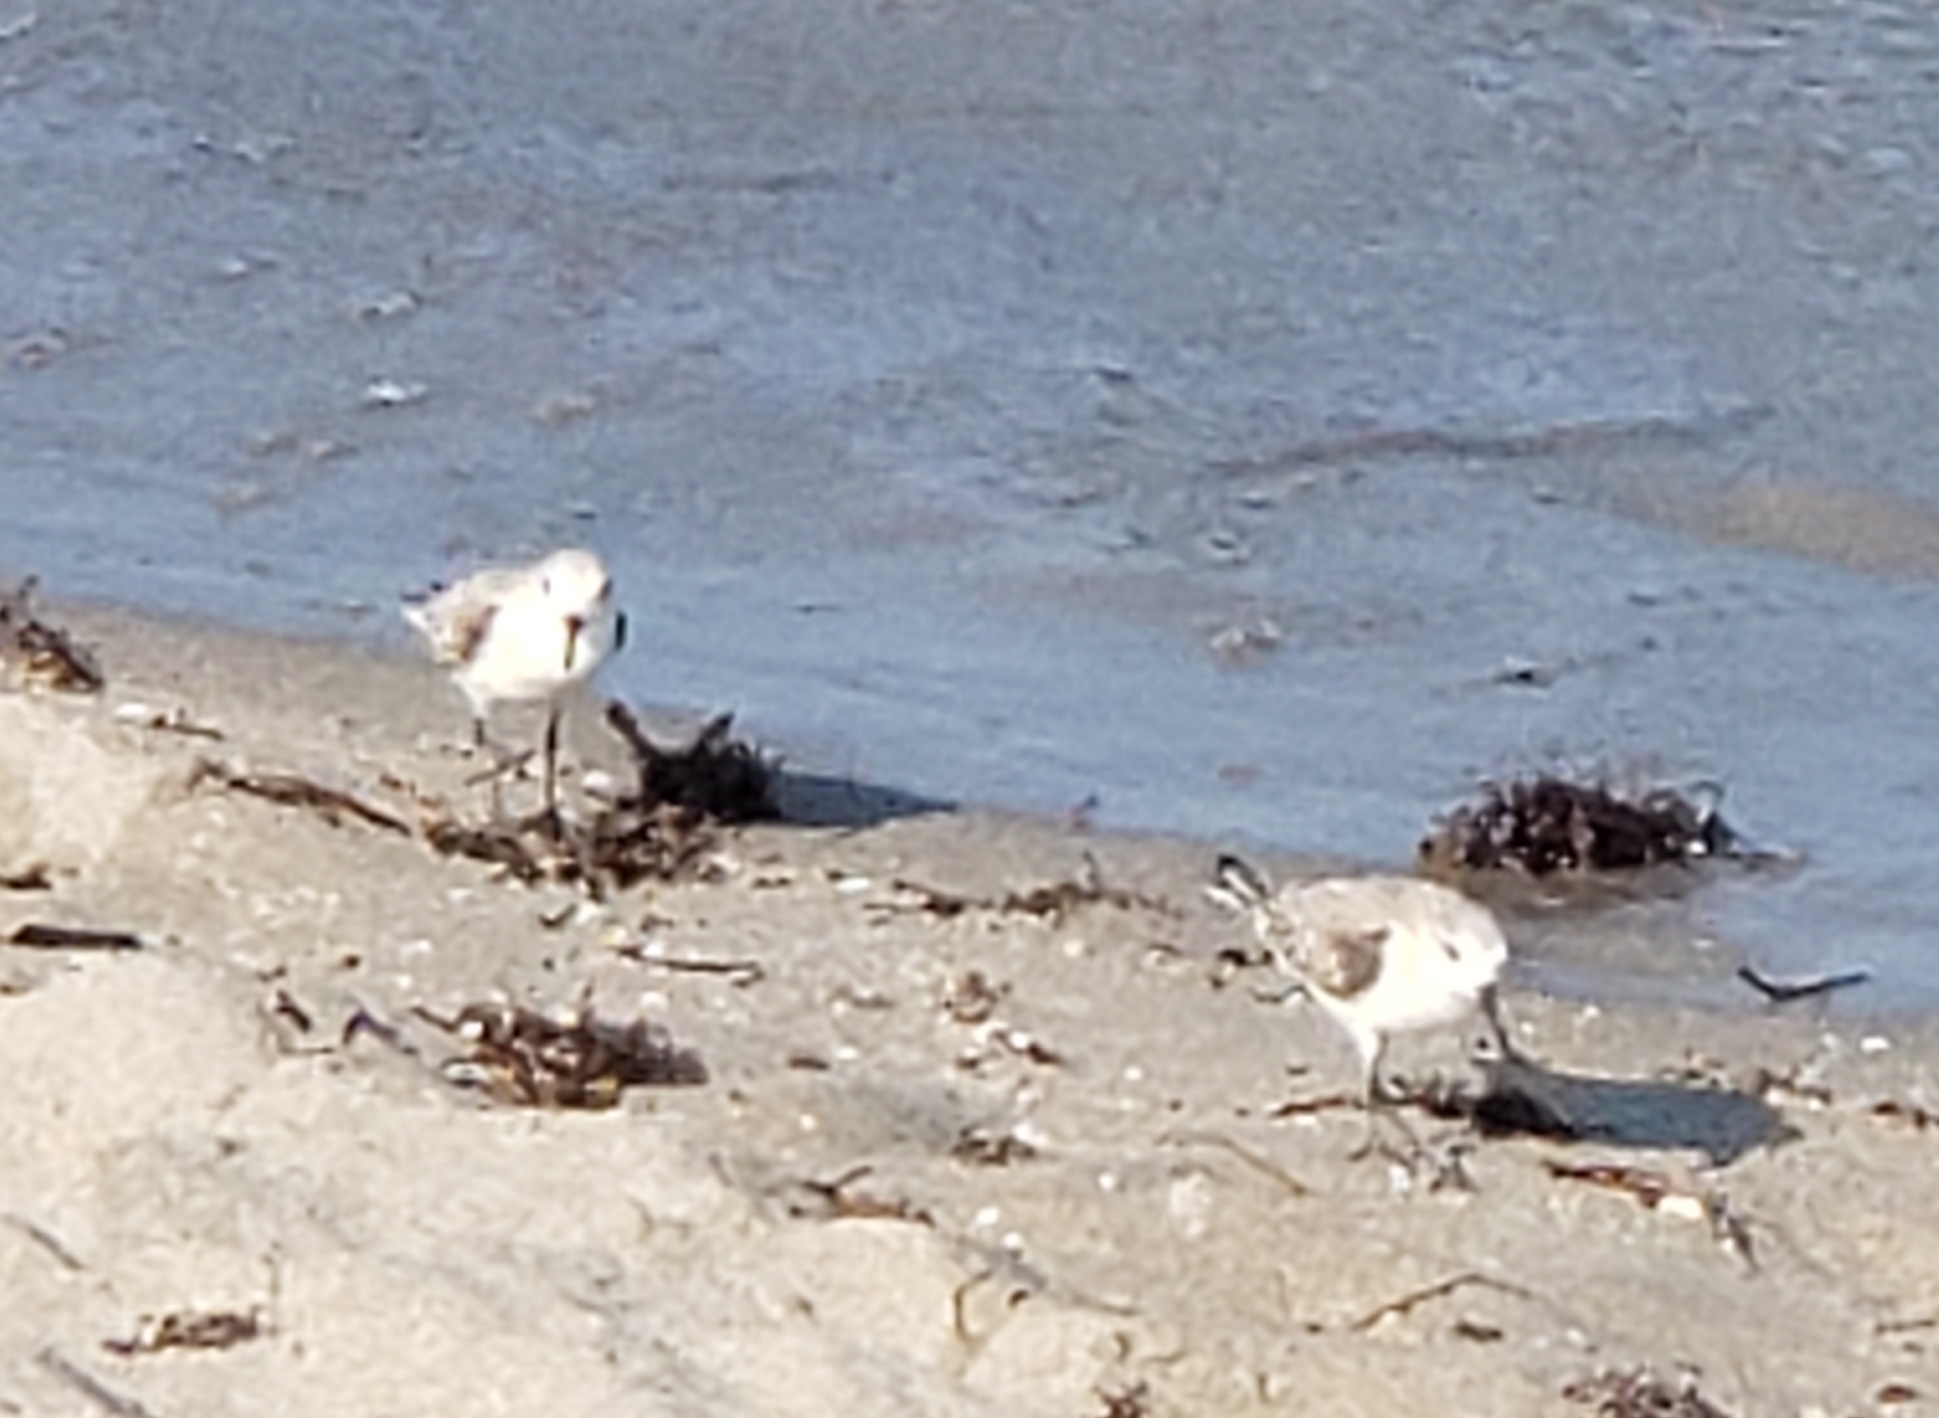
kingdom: Animalia
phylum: Chordata
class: Aves
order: Charadriiformes
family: Scolopacidae
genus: Calidris
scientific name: Calidris alba
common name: Sanderling
